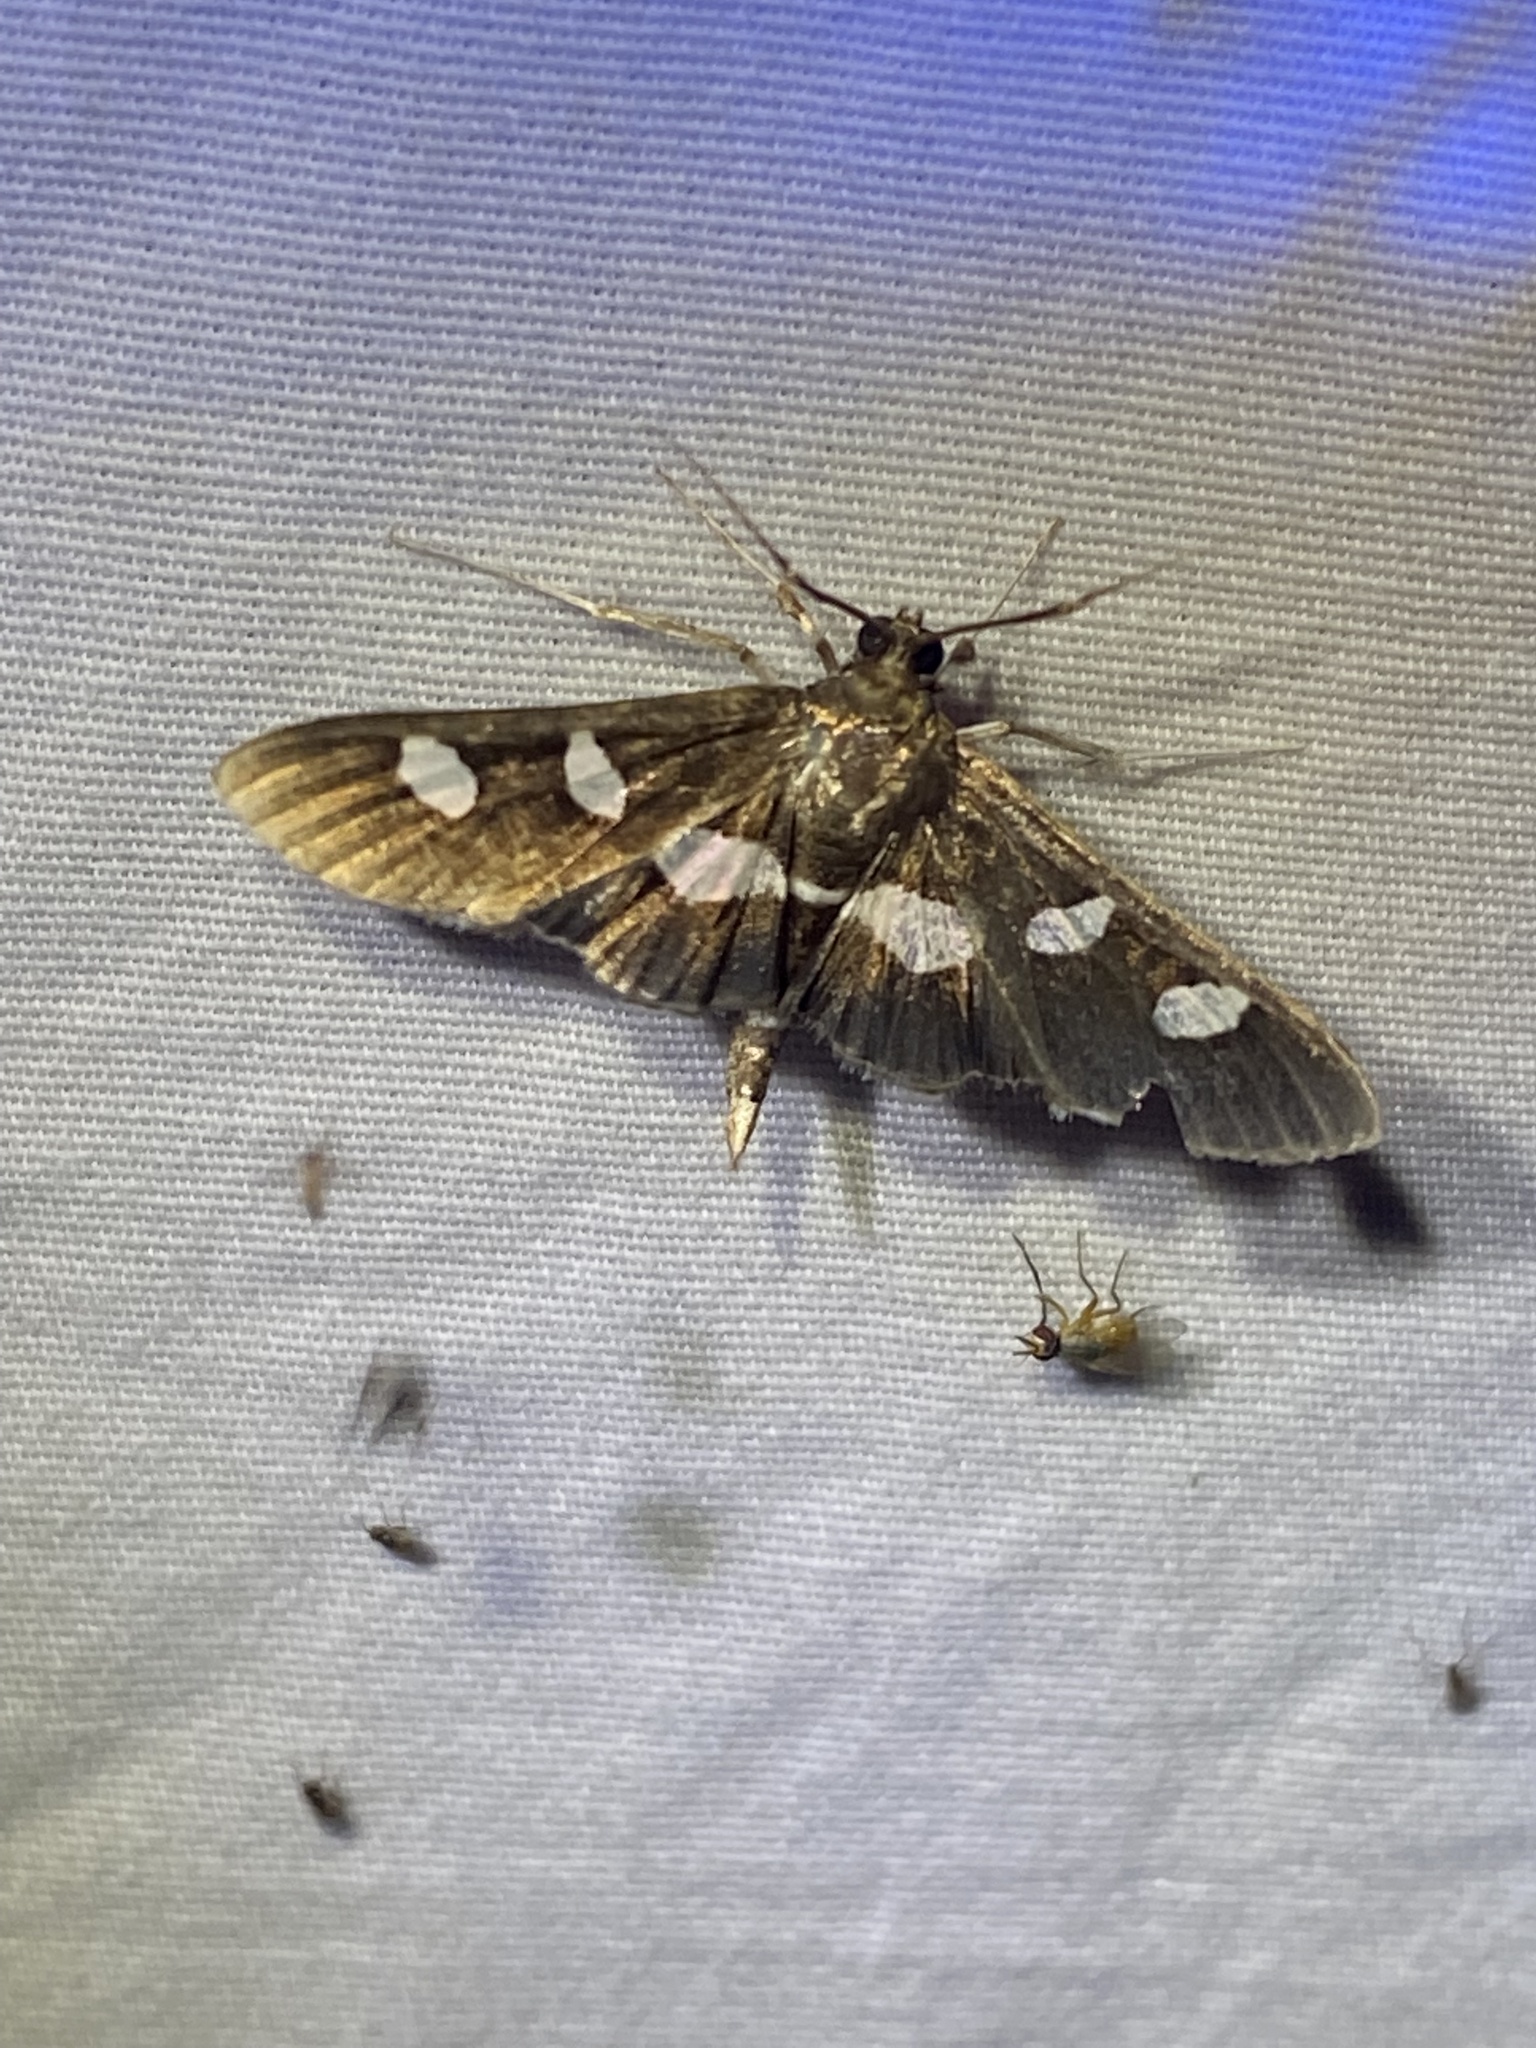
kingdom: Animalia
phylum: Arthropoda
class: Insecta
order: Lepidoptera
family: Crambidae
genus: Desmia
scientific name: Desmia funeralis
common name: Grape leaf folder moth
